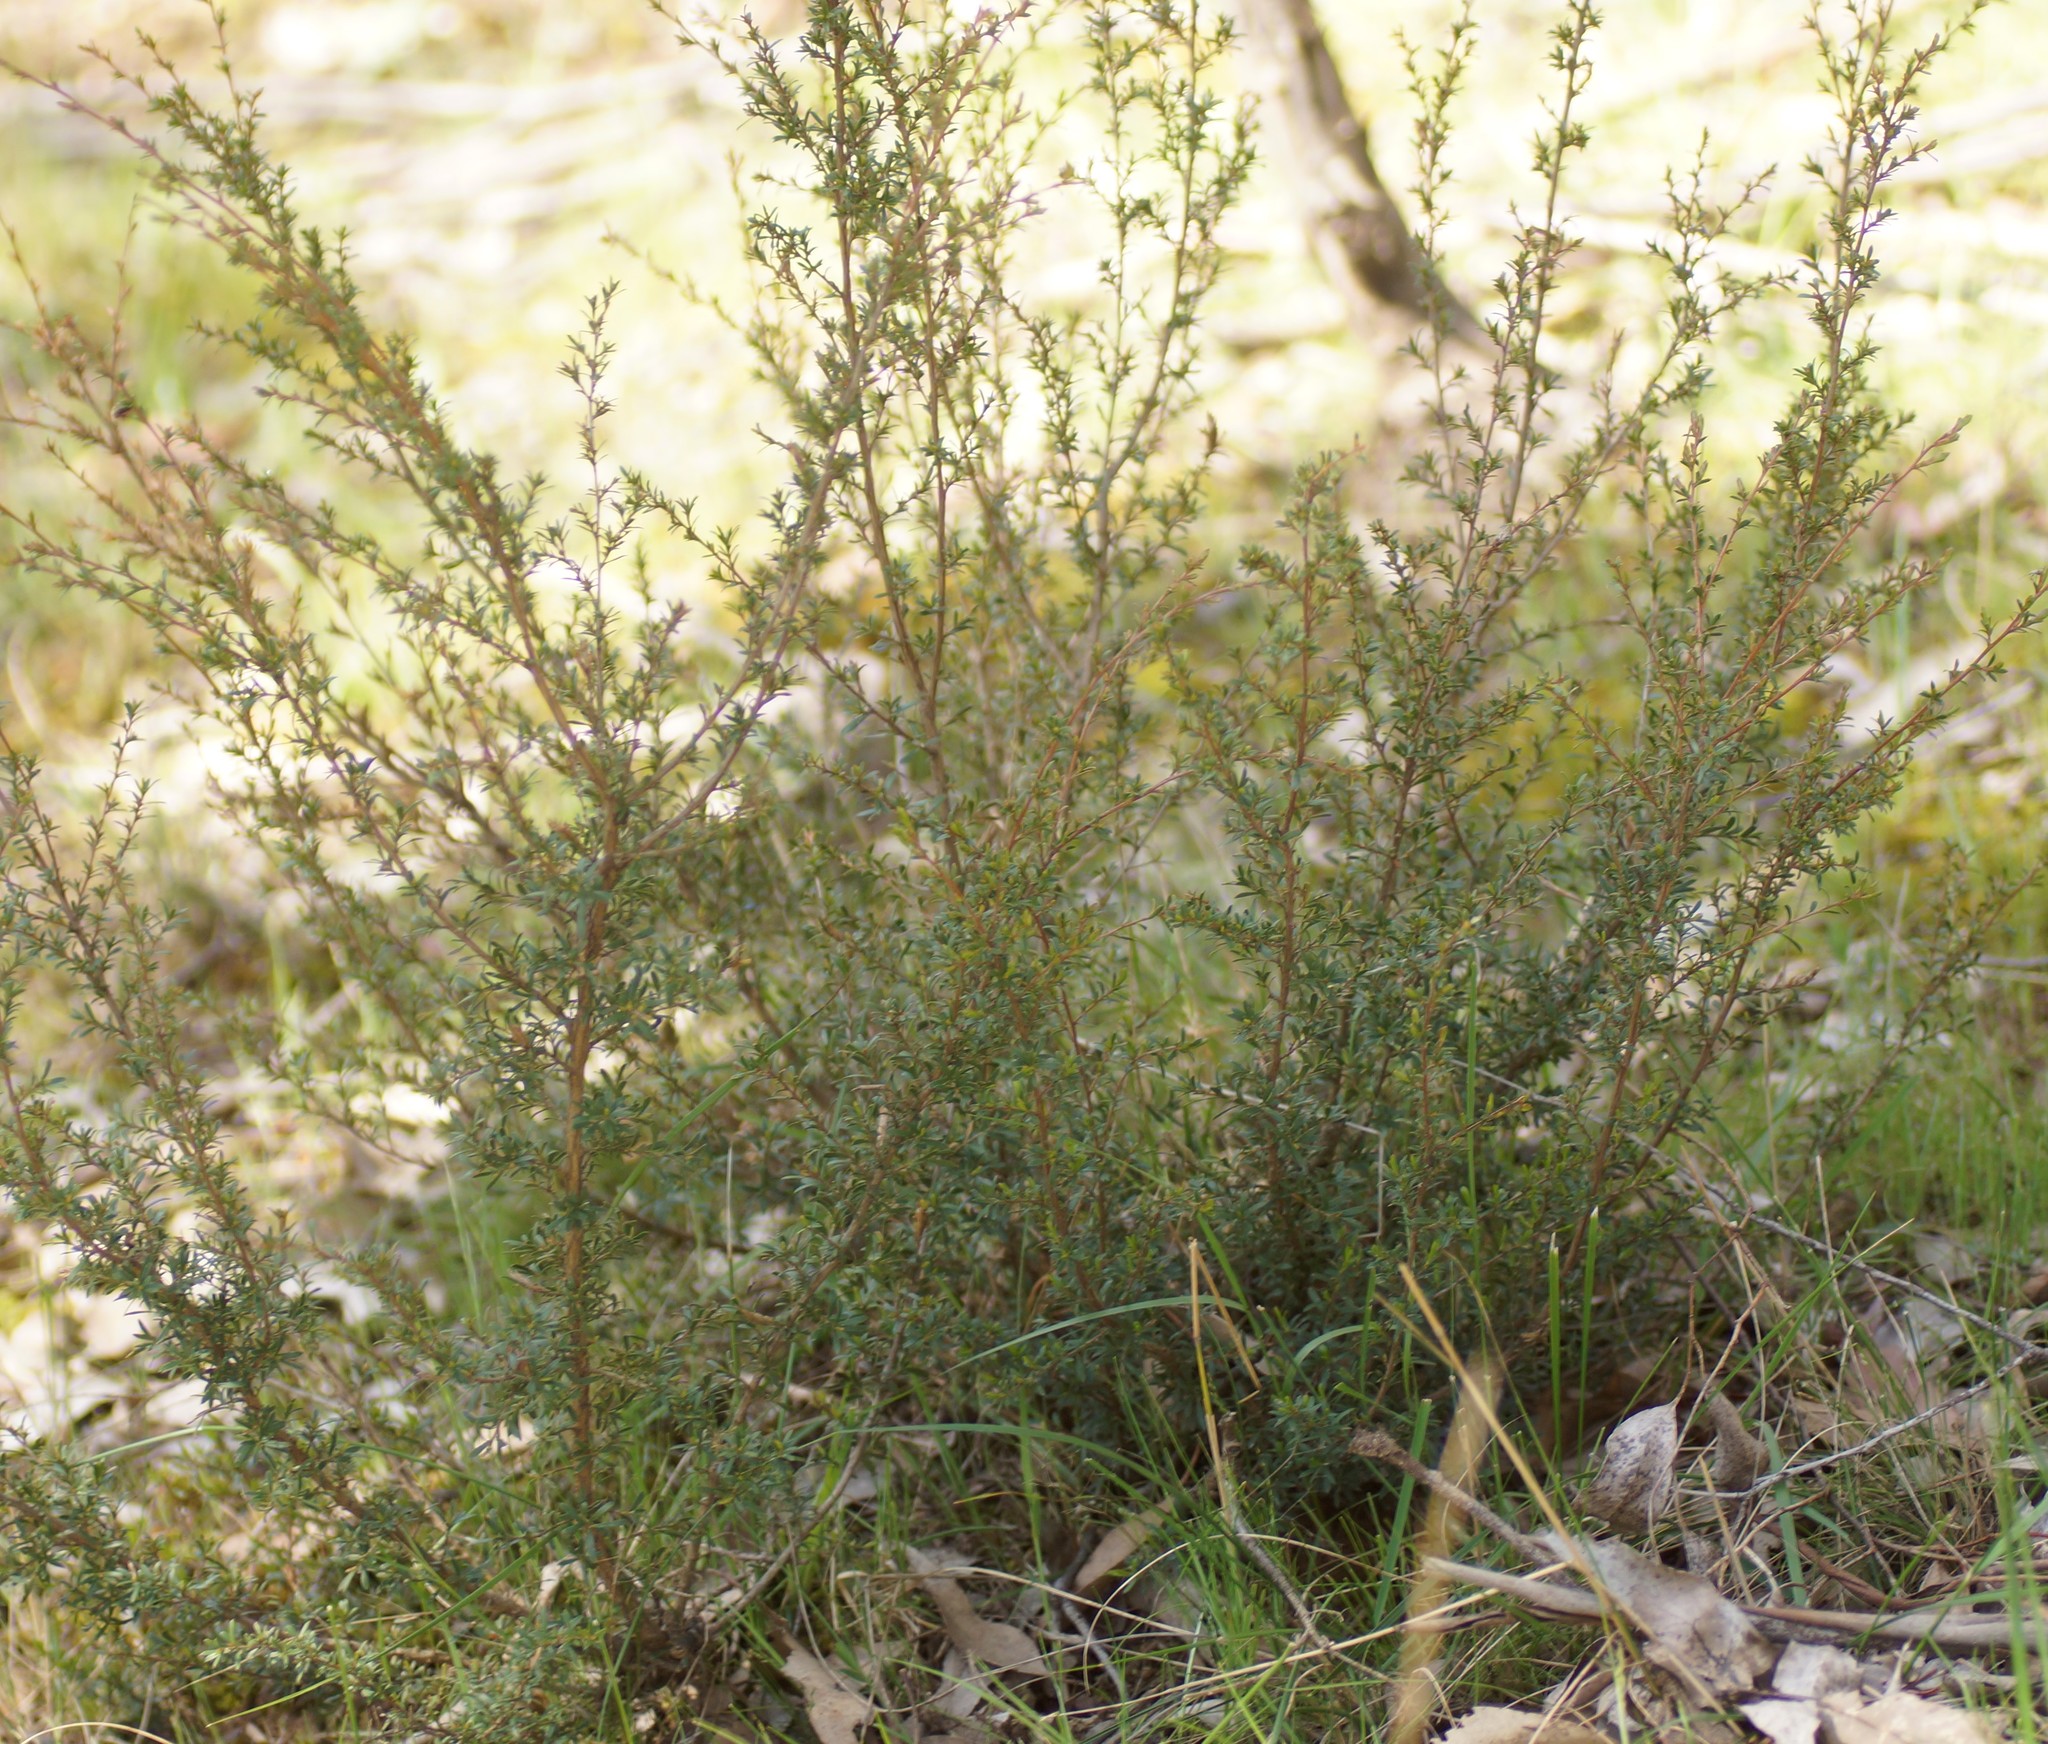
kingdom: Plantae
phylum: Tracheophyta
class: Magnoliopsida
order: Myrtales
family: Myrtaceae
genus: Kunzea
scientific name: Kunzea leptospermoides
